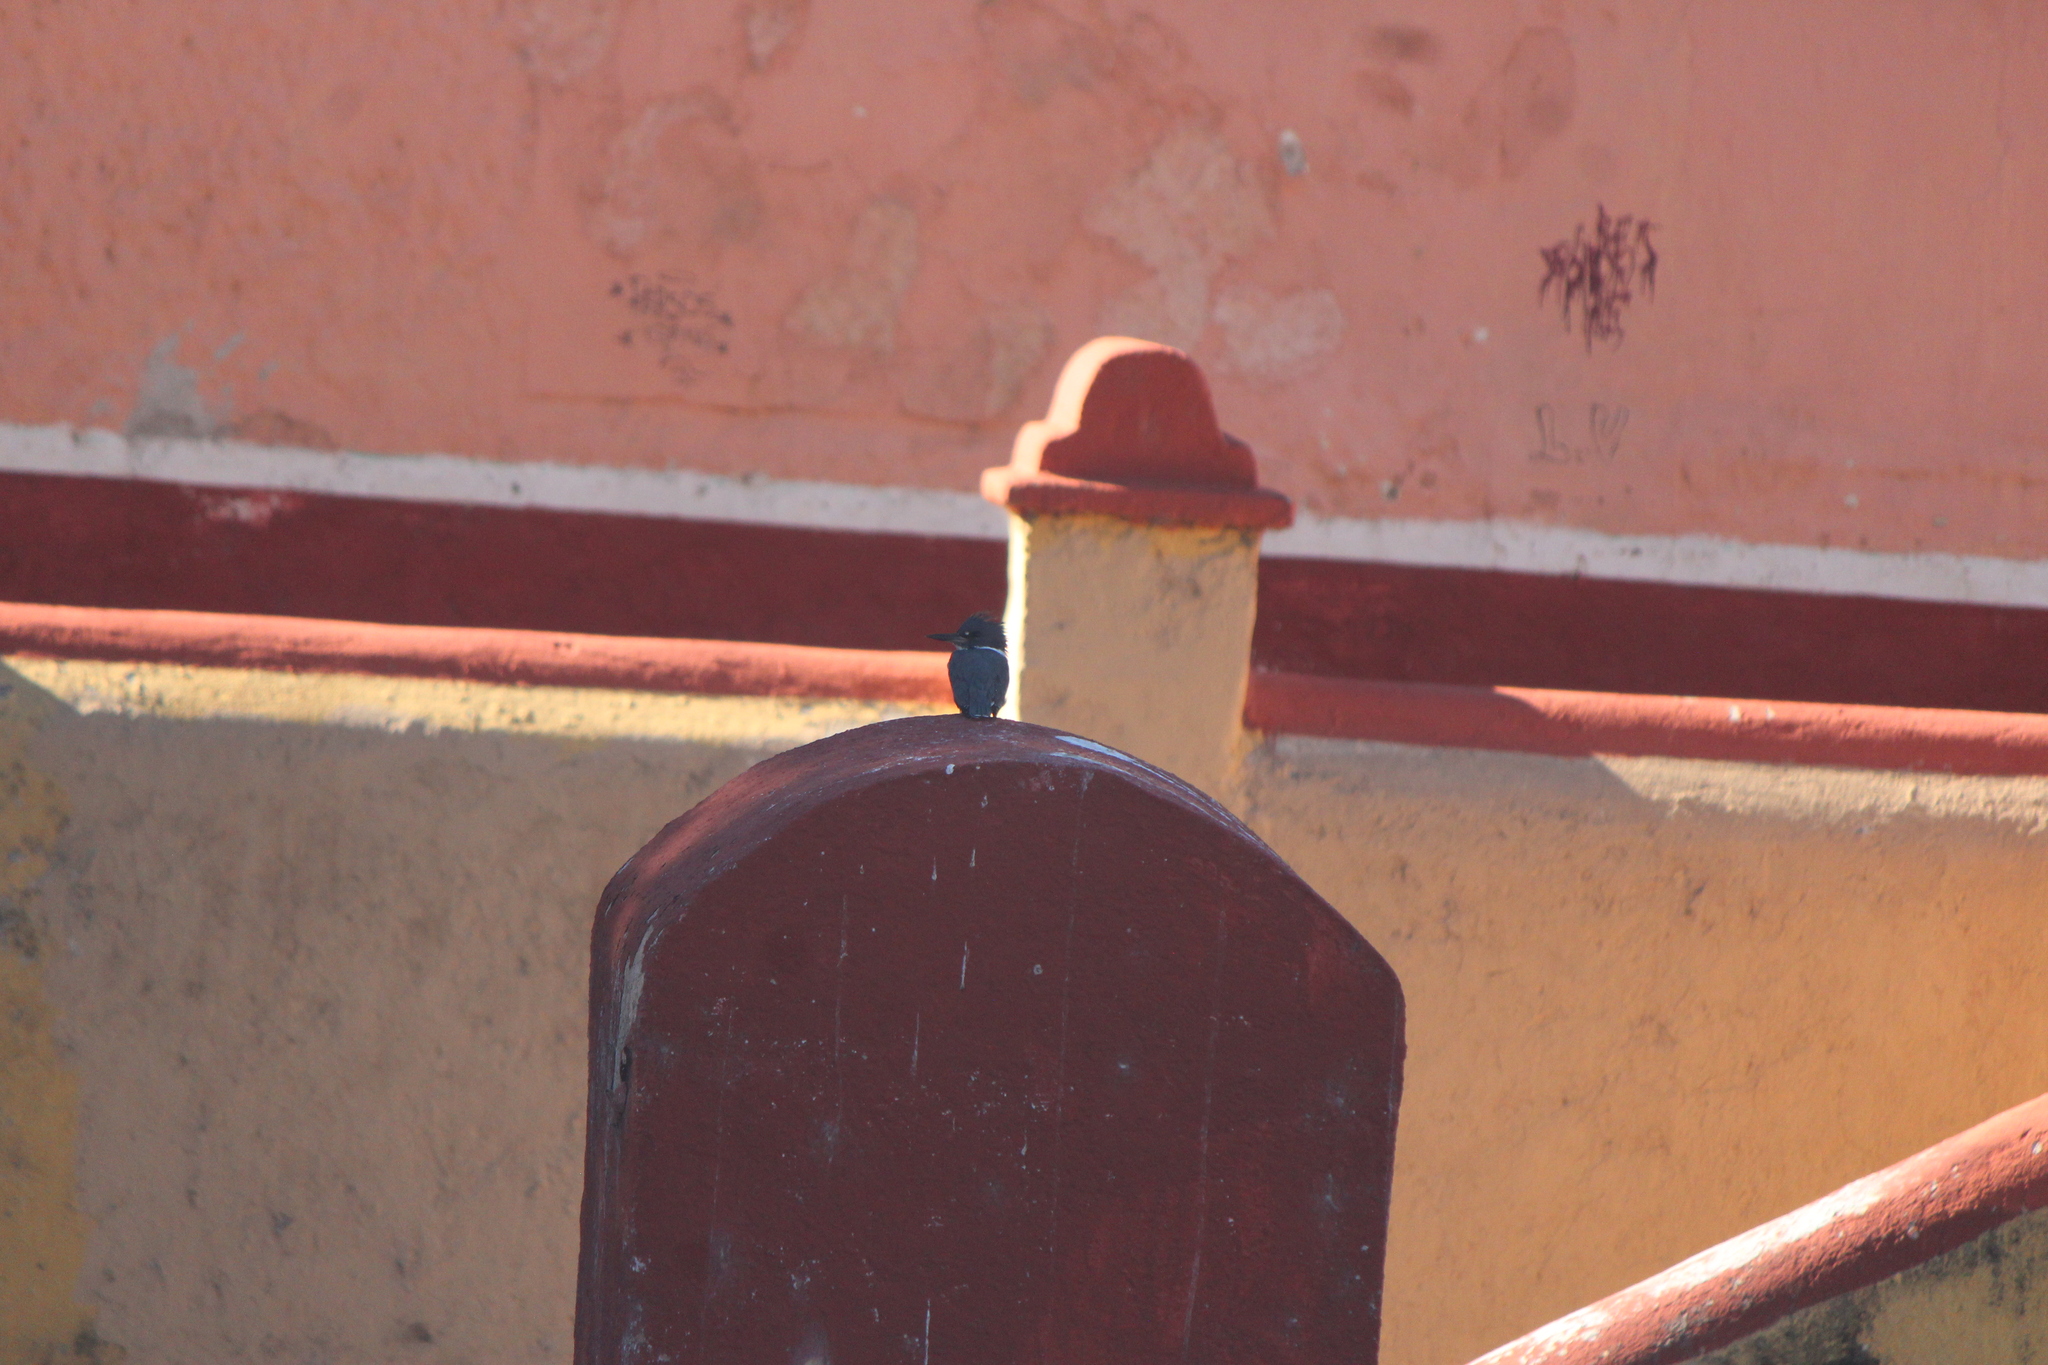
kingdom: Animalia
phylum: Chordata
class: Aves
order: Coraciiformes
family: Alcedinidae
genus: Megaceryle
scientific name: Megaceryle alcyon
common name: Belted kingfisher
